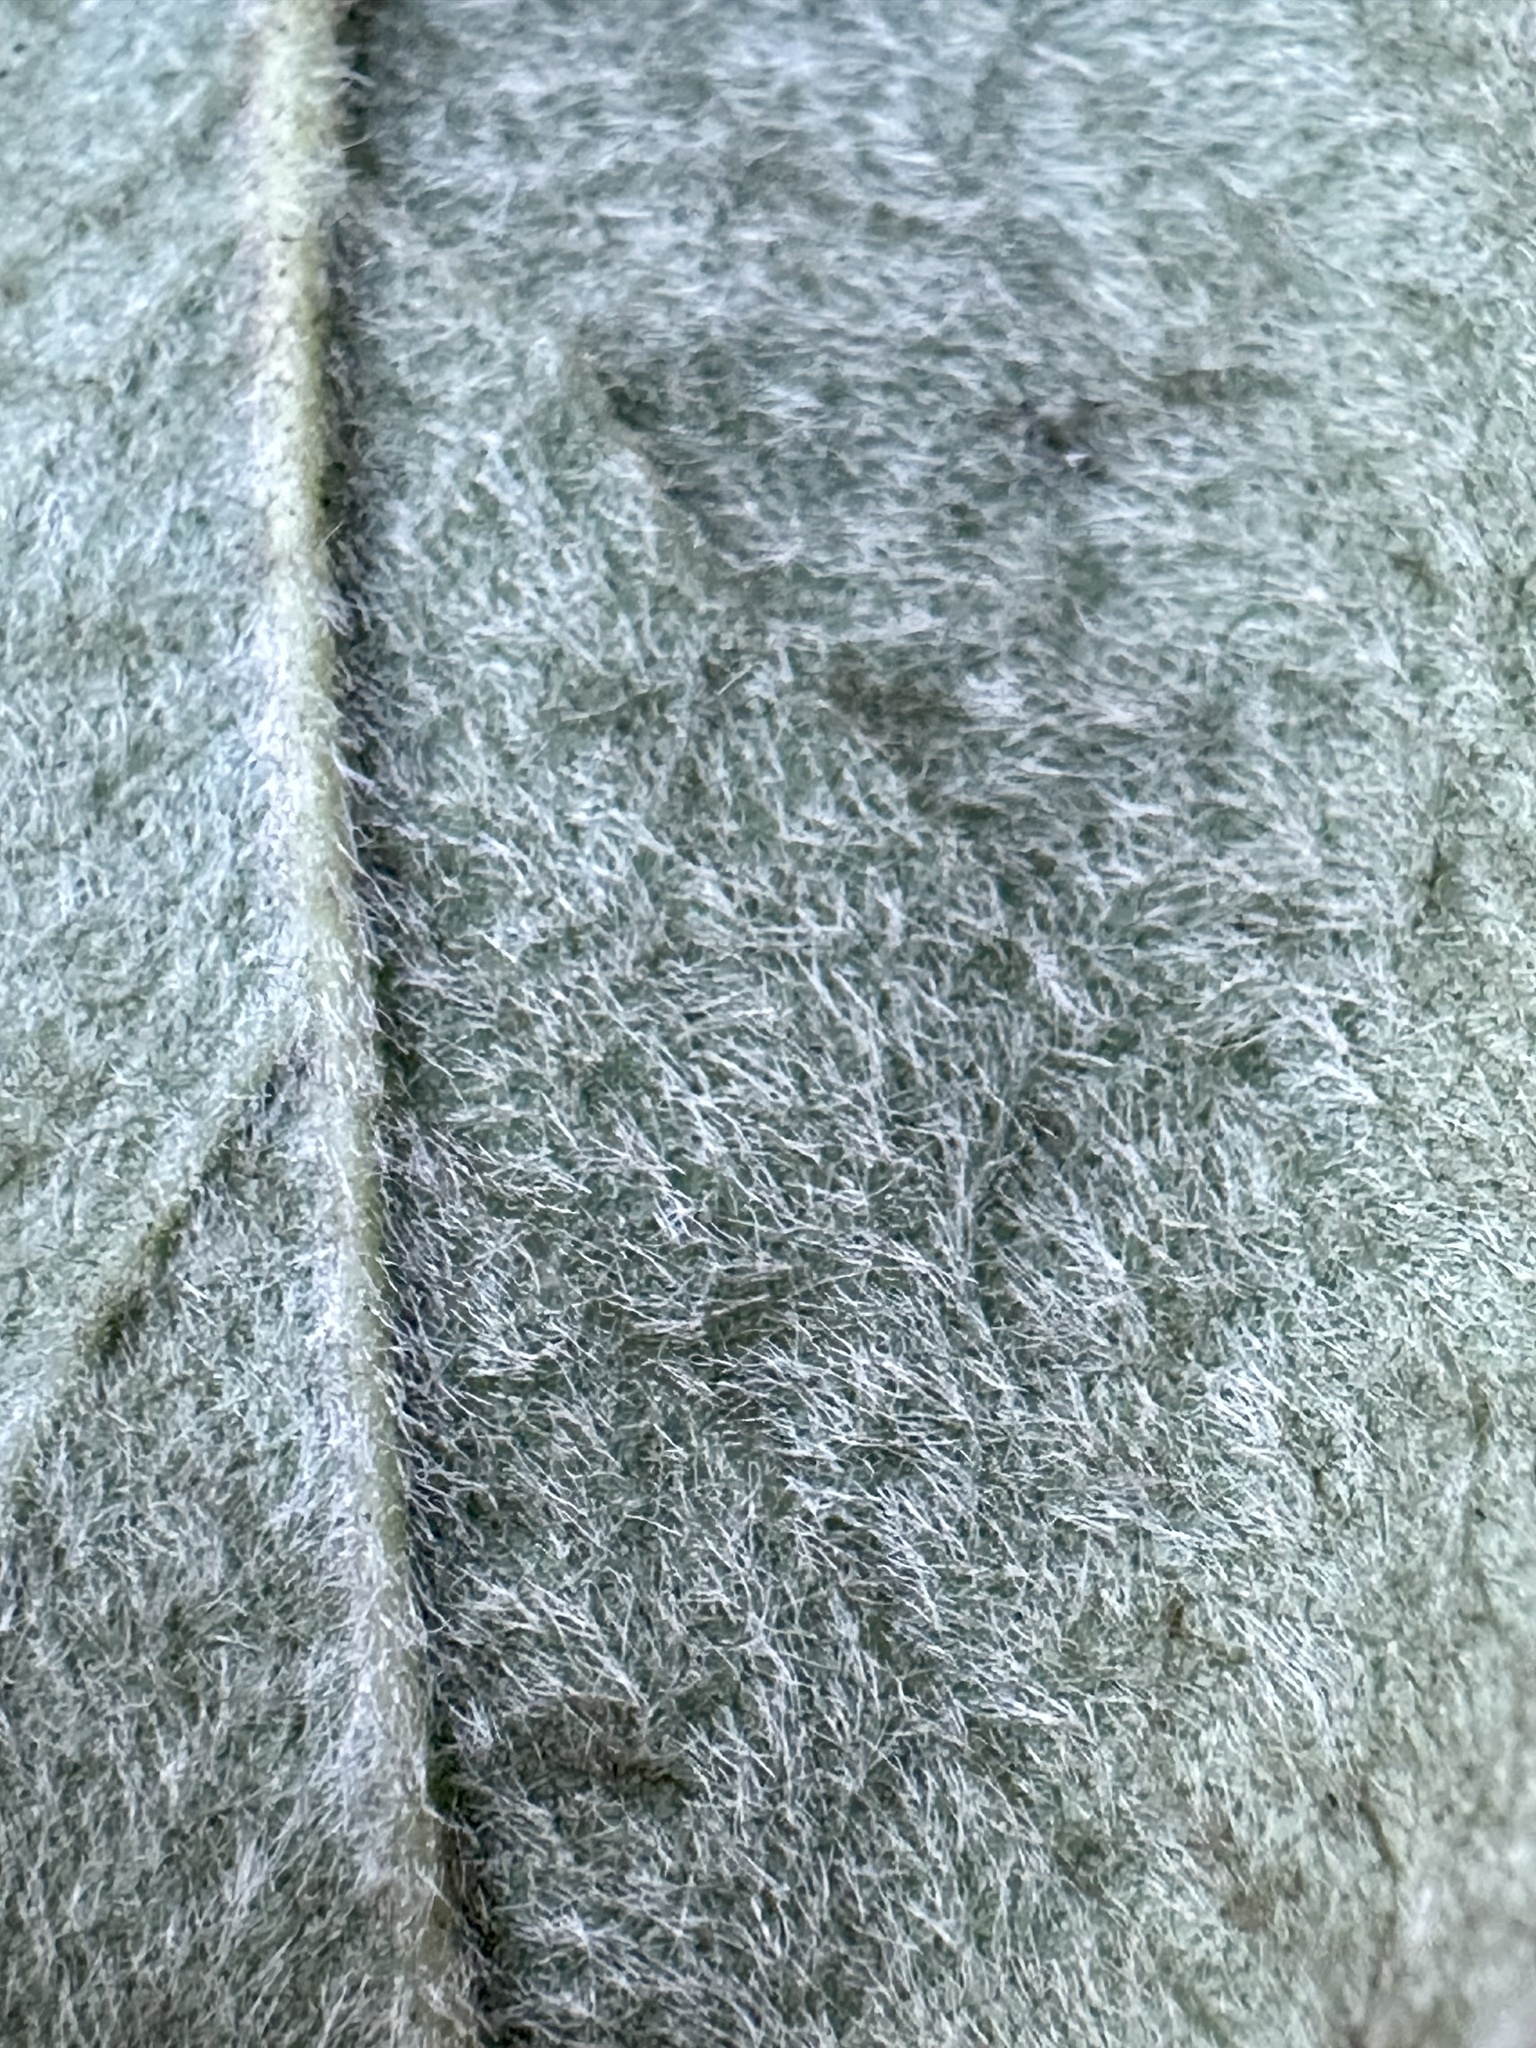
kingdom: Plantae
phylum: Tracheophyta
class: Magnoliopsida
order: Garryales
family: Garryaceae
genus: Garrya
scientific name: Garrya elliptica
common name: Silk-tassel
